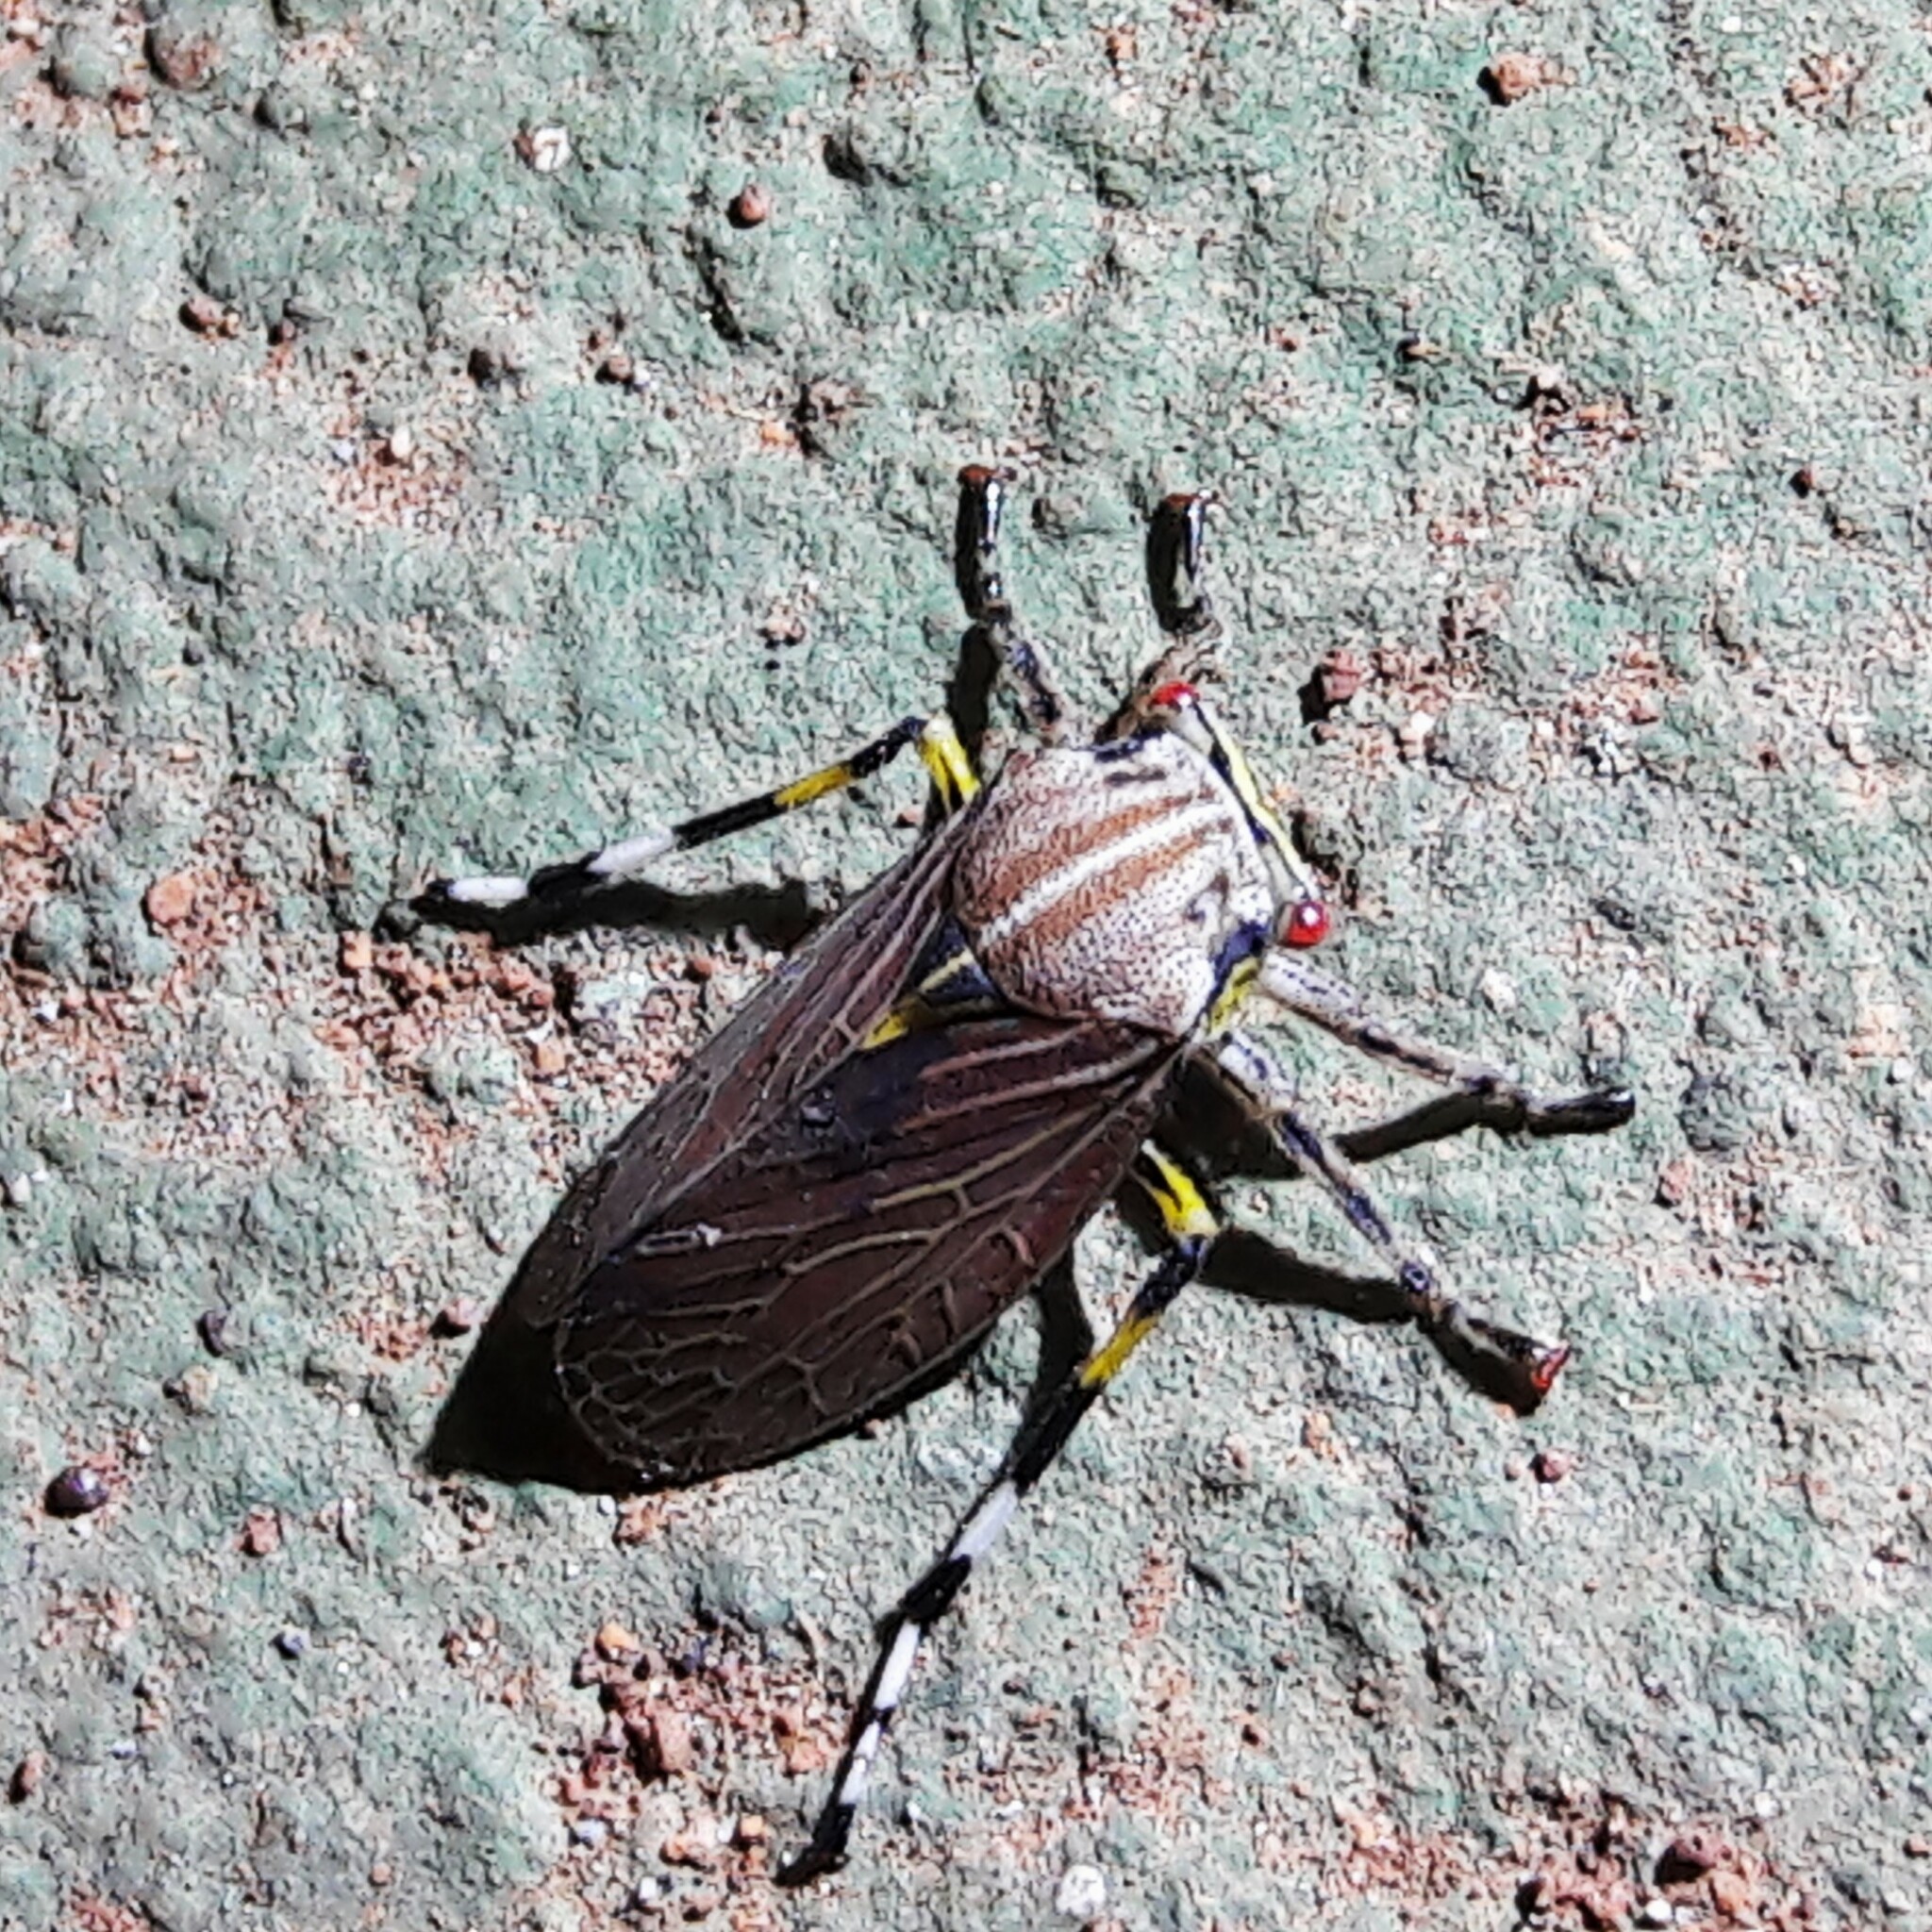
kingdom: Animalia
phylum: Arthropoda
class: Insecta
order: Hemiptera
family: Aetalionidae
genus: Aetalion
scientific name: Aetalion reticulatum
